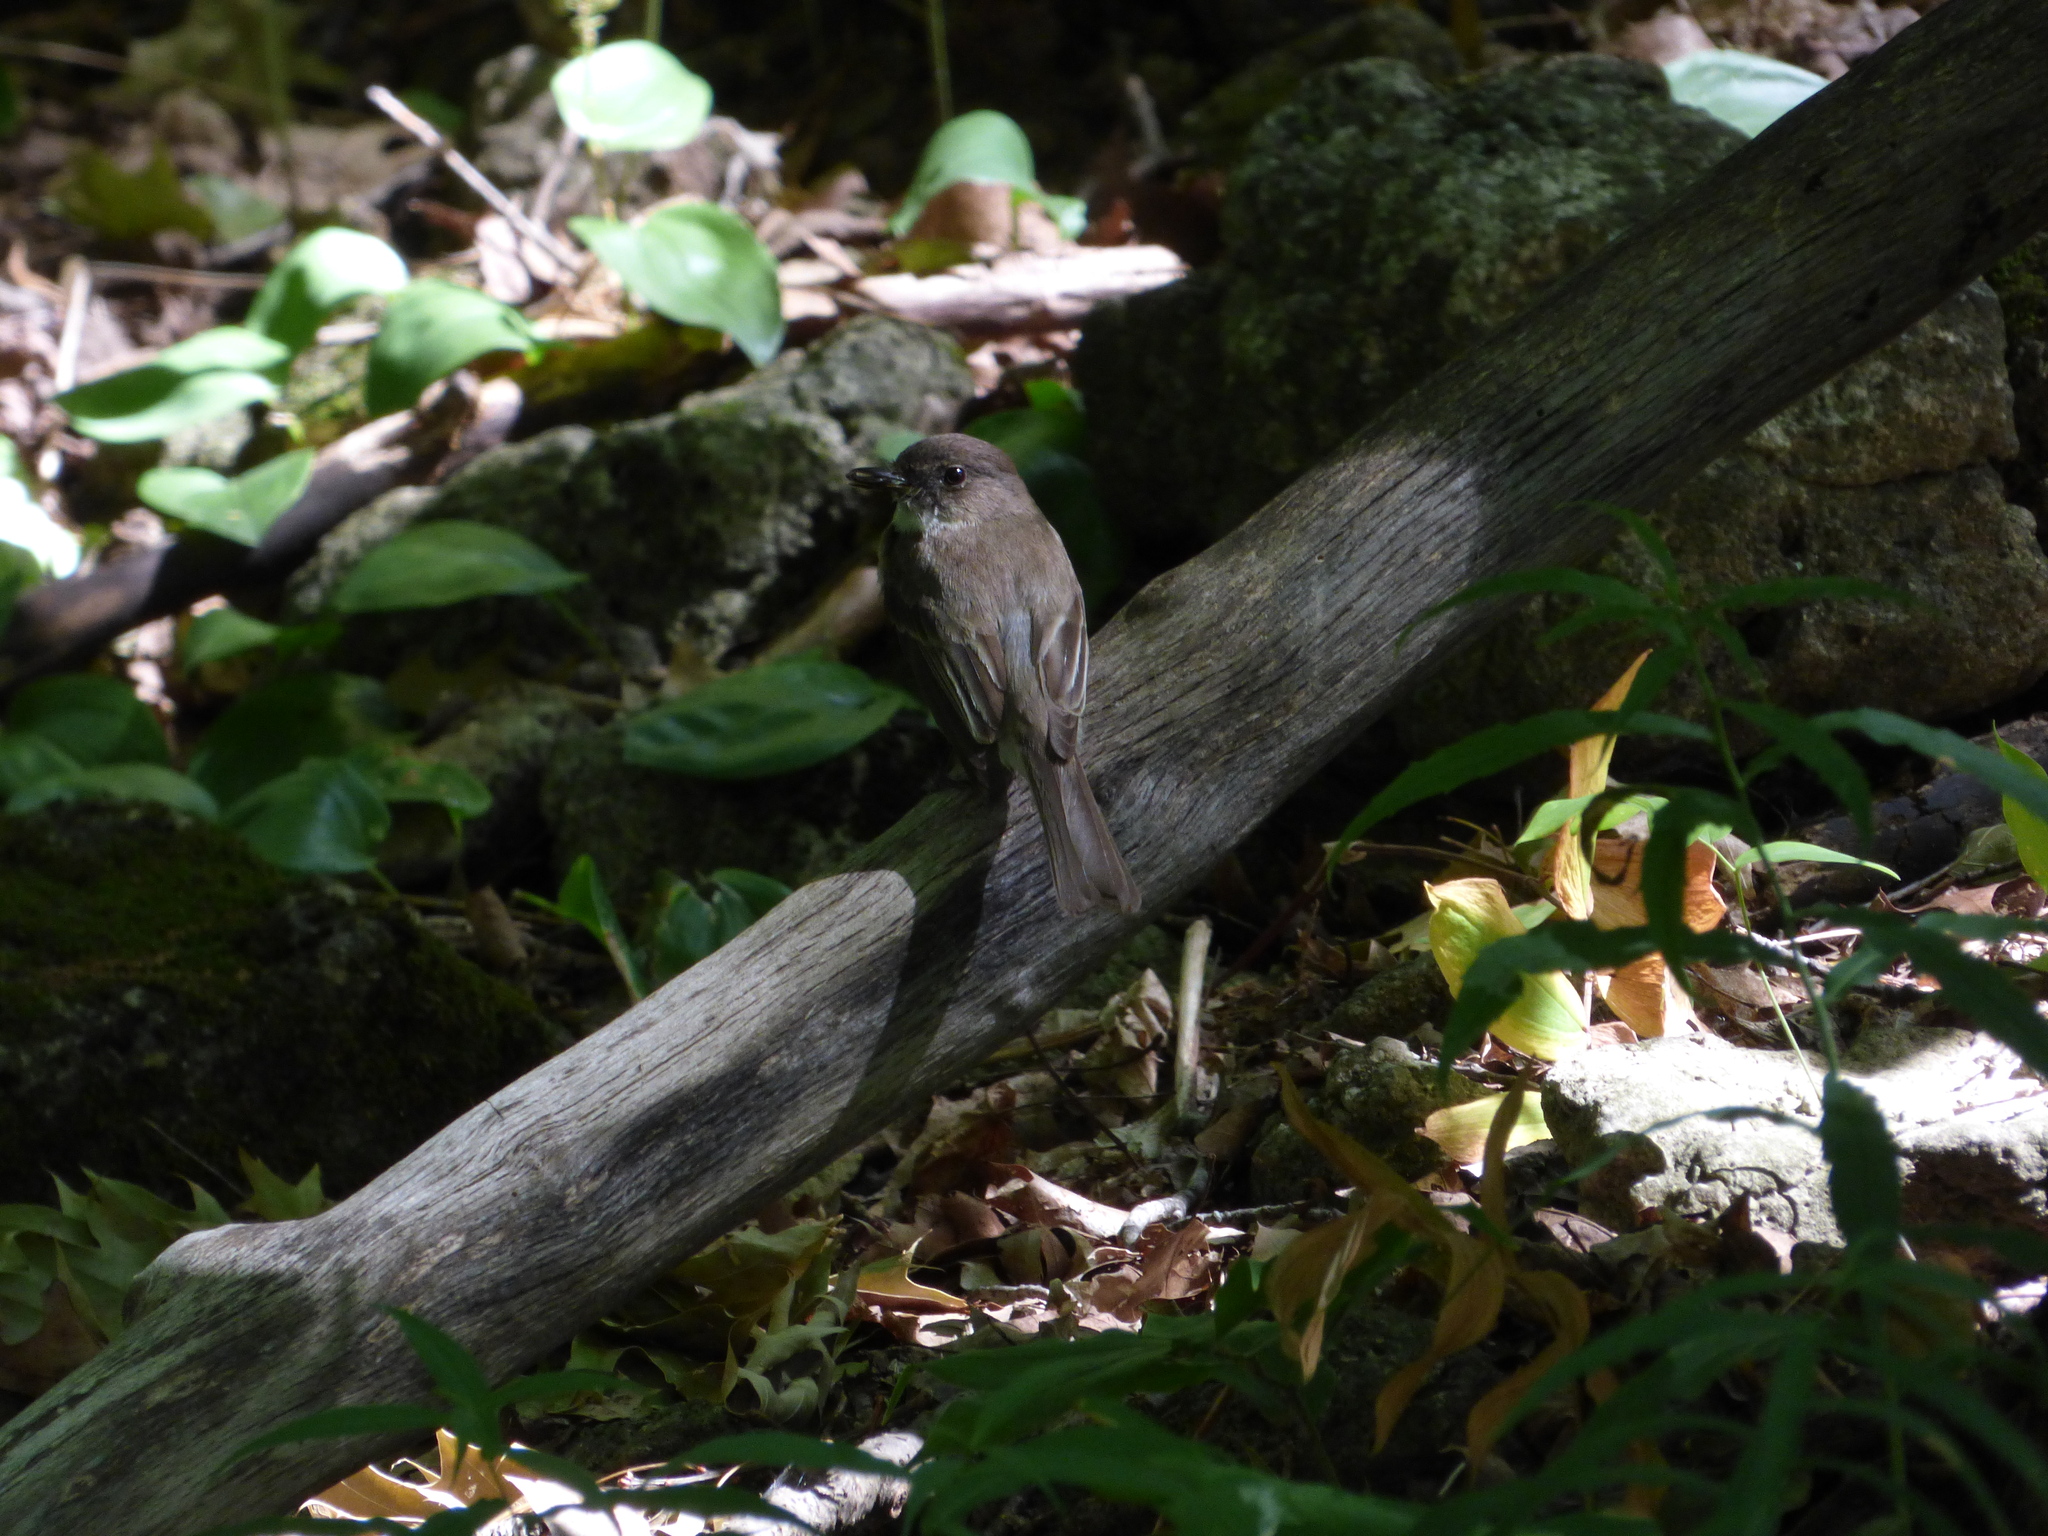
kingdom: Animalia
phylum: Chordata
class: Aves
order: Passeriformes
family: Tyrannidae
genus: Sayornis
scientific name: Sayornis phoebe
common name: Eastern phoebe
